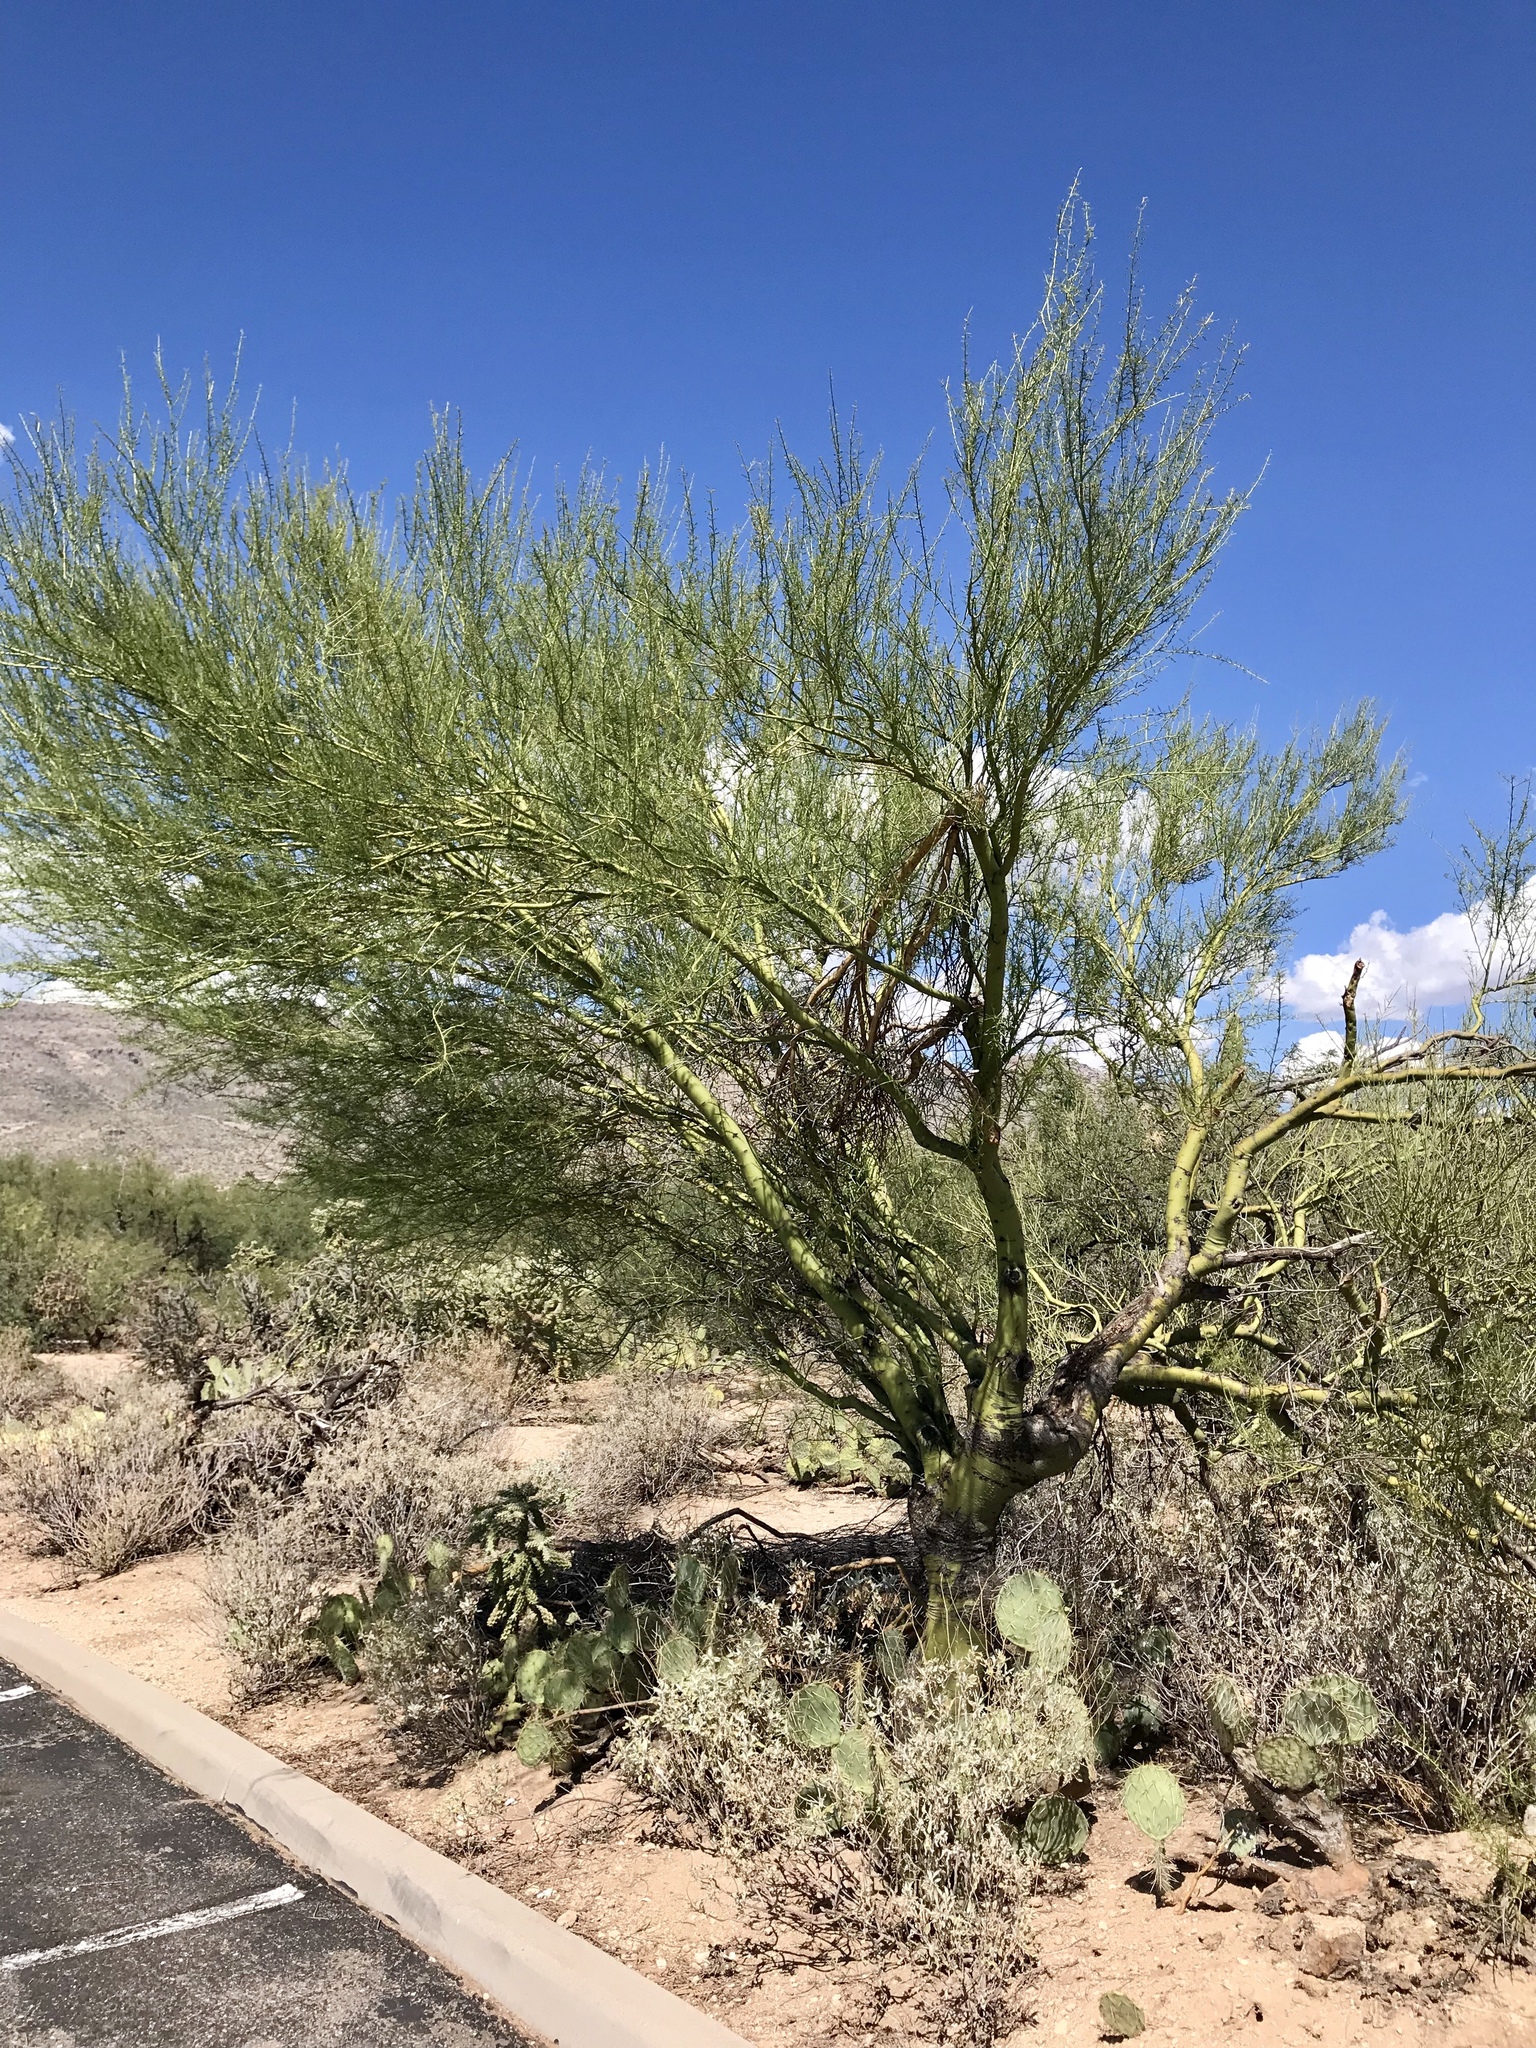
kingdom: Plantae
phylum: Tracheophyta
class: Magnoliopsida
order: Fabales
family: Fabaceae
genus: Parkinsonia
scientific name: Parkinsonia microphylla
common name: Yellow paloverde
